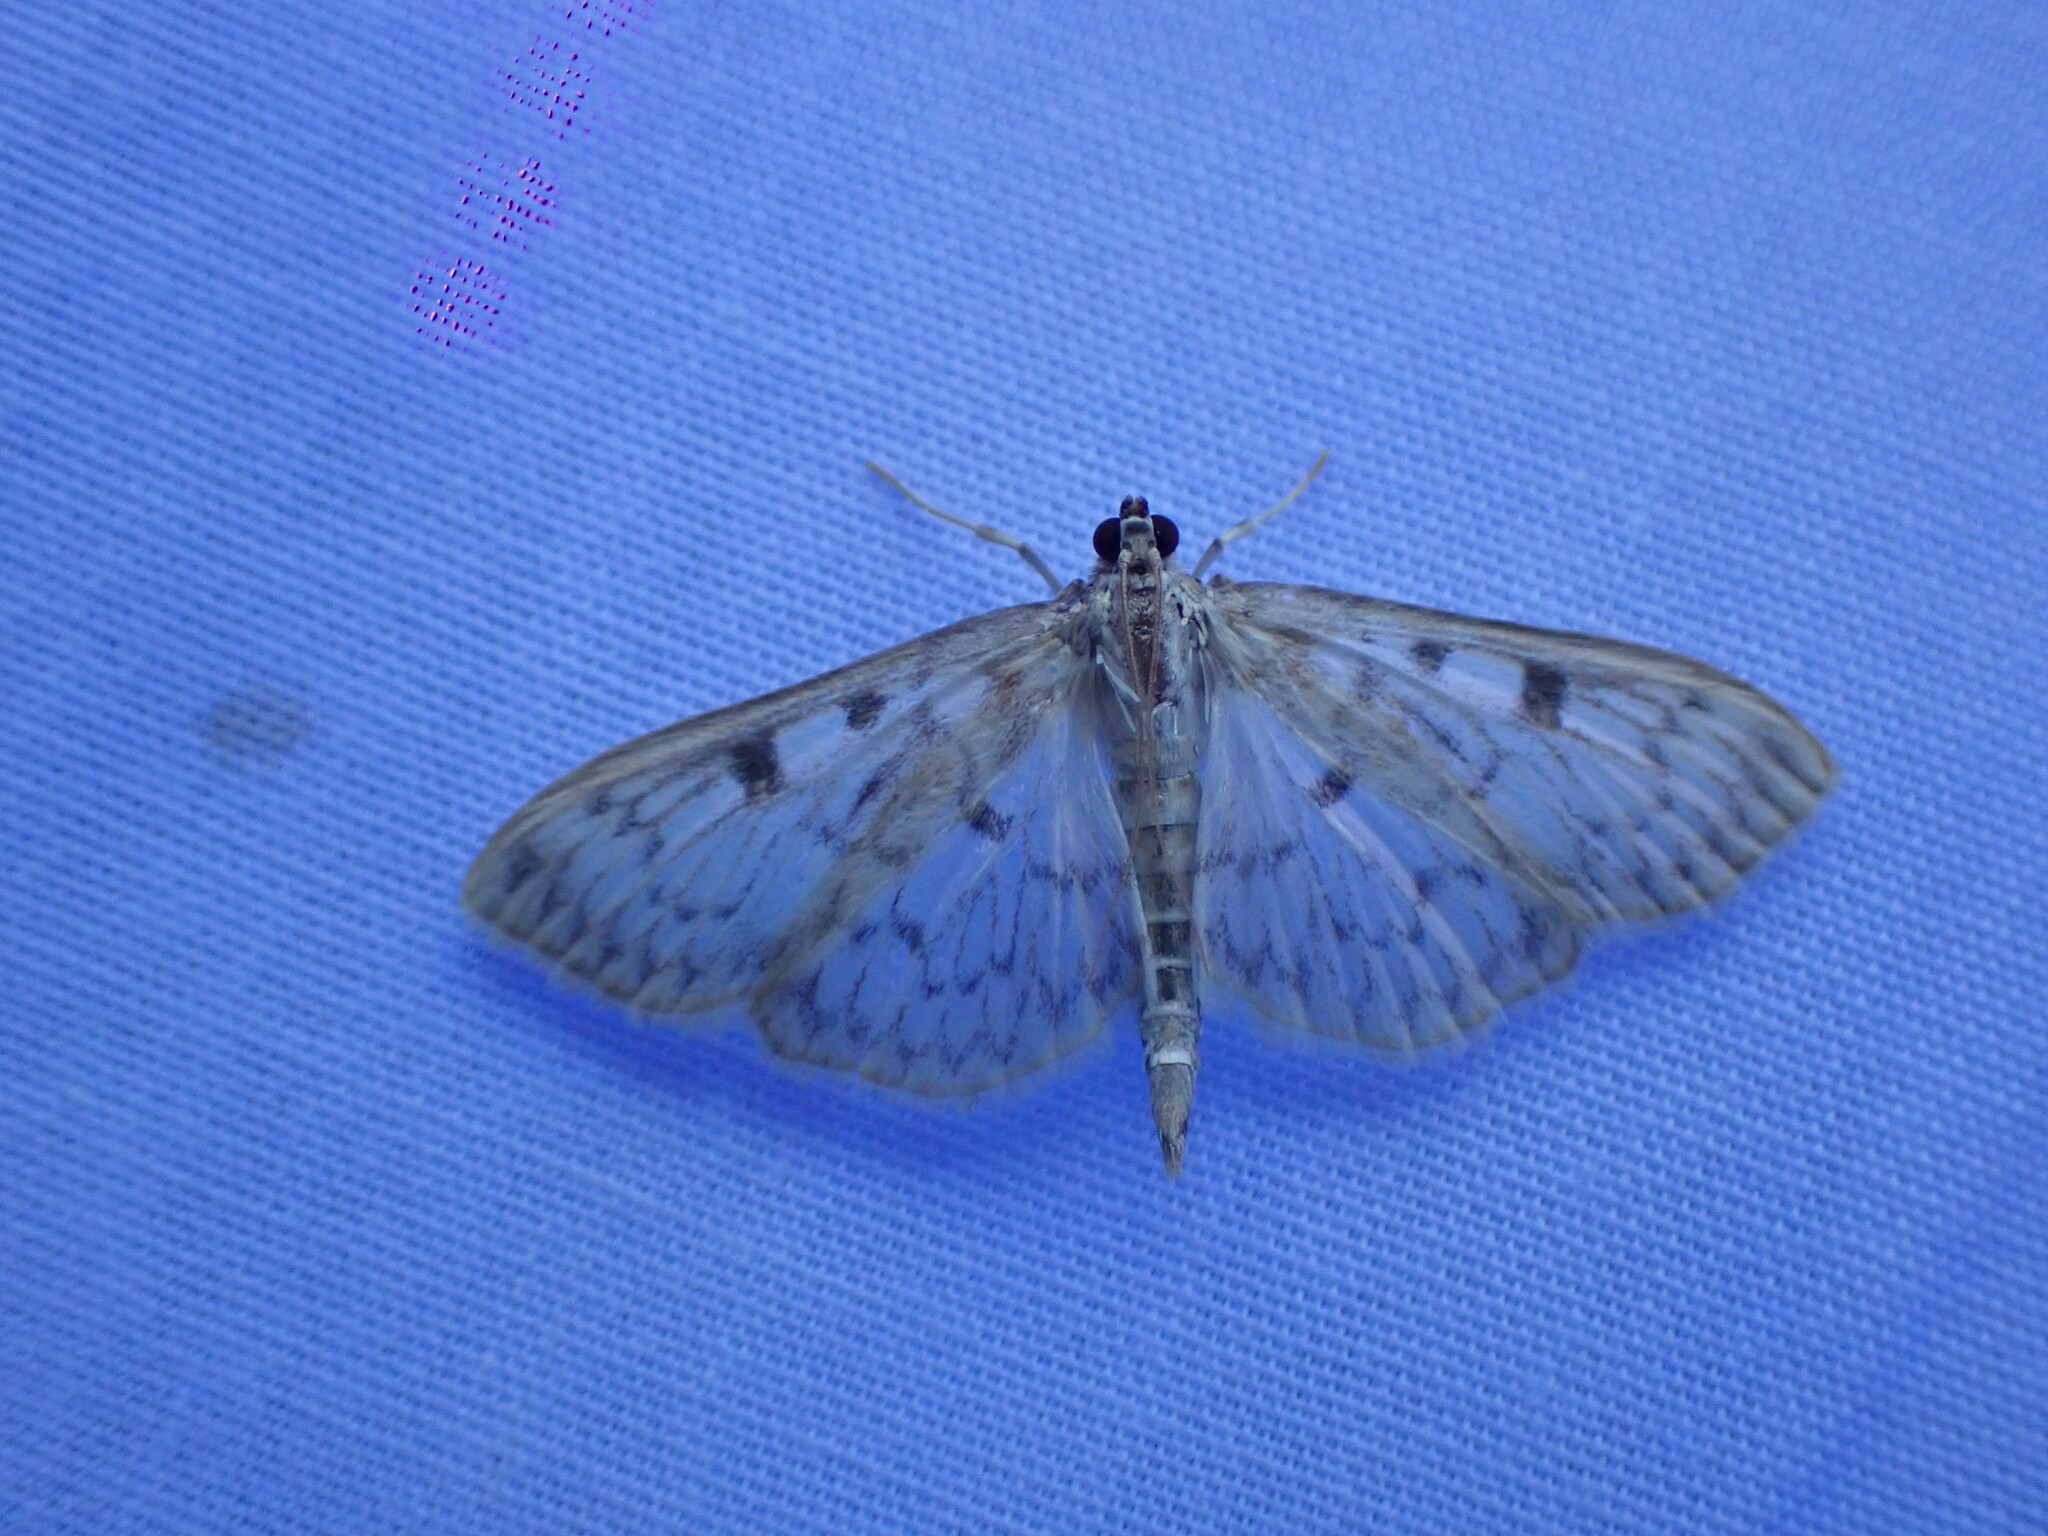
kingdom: Animalia
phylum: Arthropoda
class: Insecta
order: Lepidoptera
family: Crambidae
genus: Herpetogramma
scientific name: Herpetogramma aquilonalis
